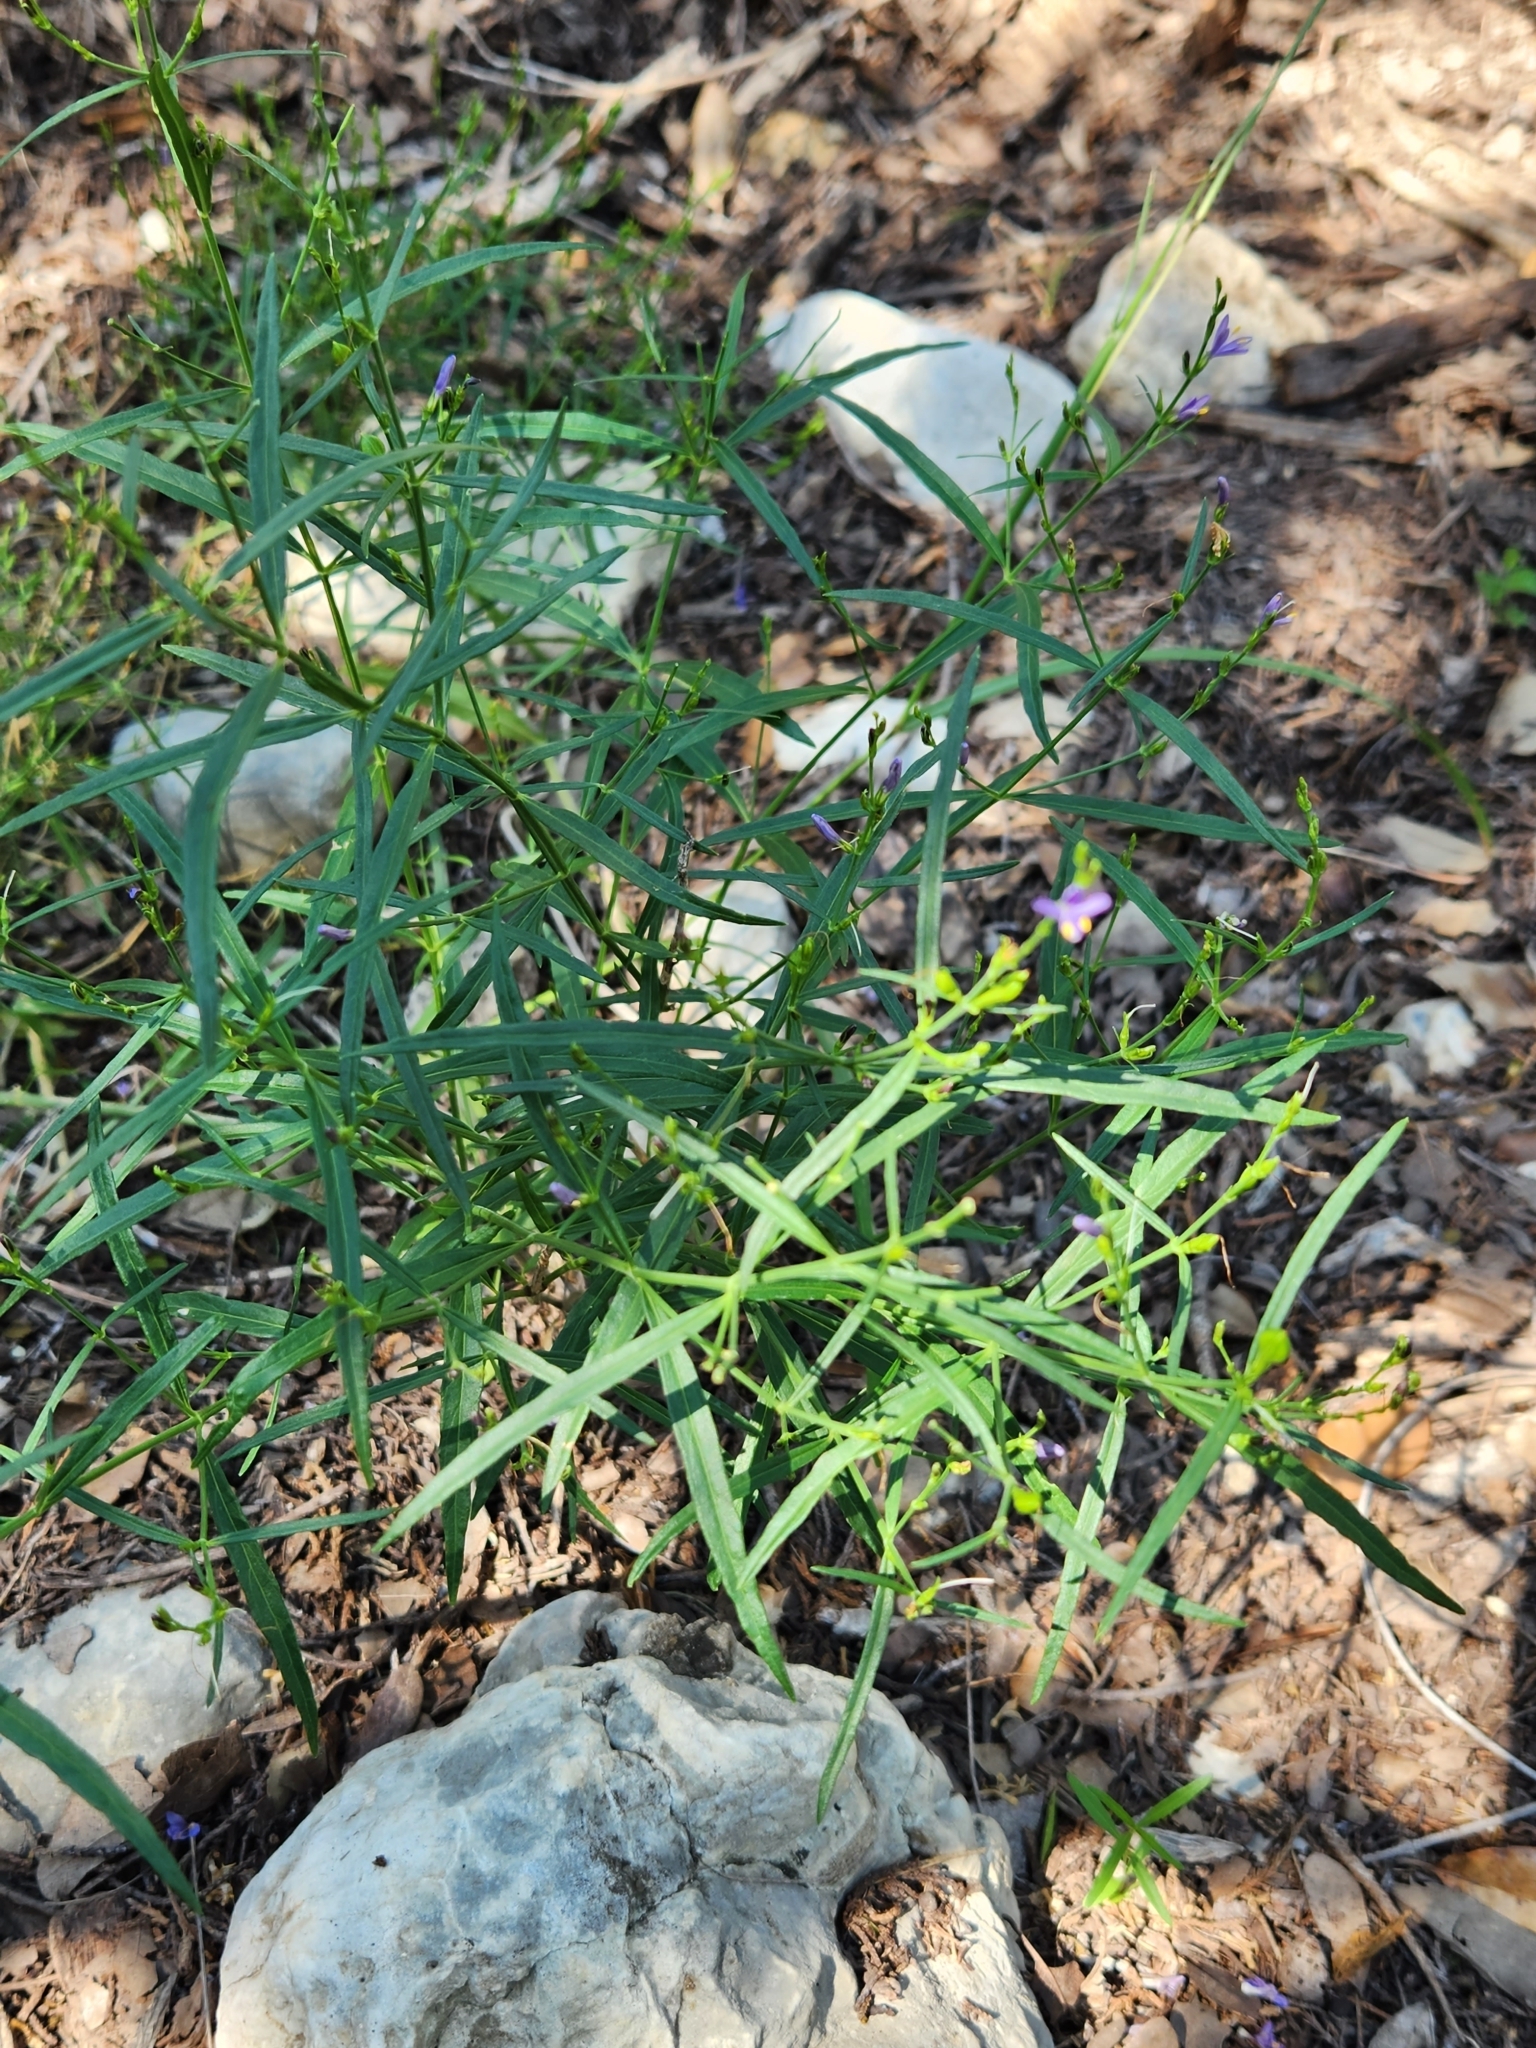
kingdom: Plantae
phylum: Tracheophyta
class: Magnoliopsida
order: Lamiales
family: Acanthaceae
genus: Carlowrightia
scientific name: Carlowrightia linearifolia
